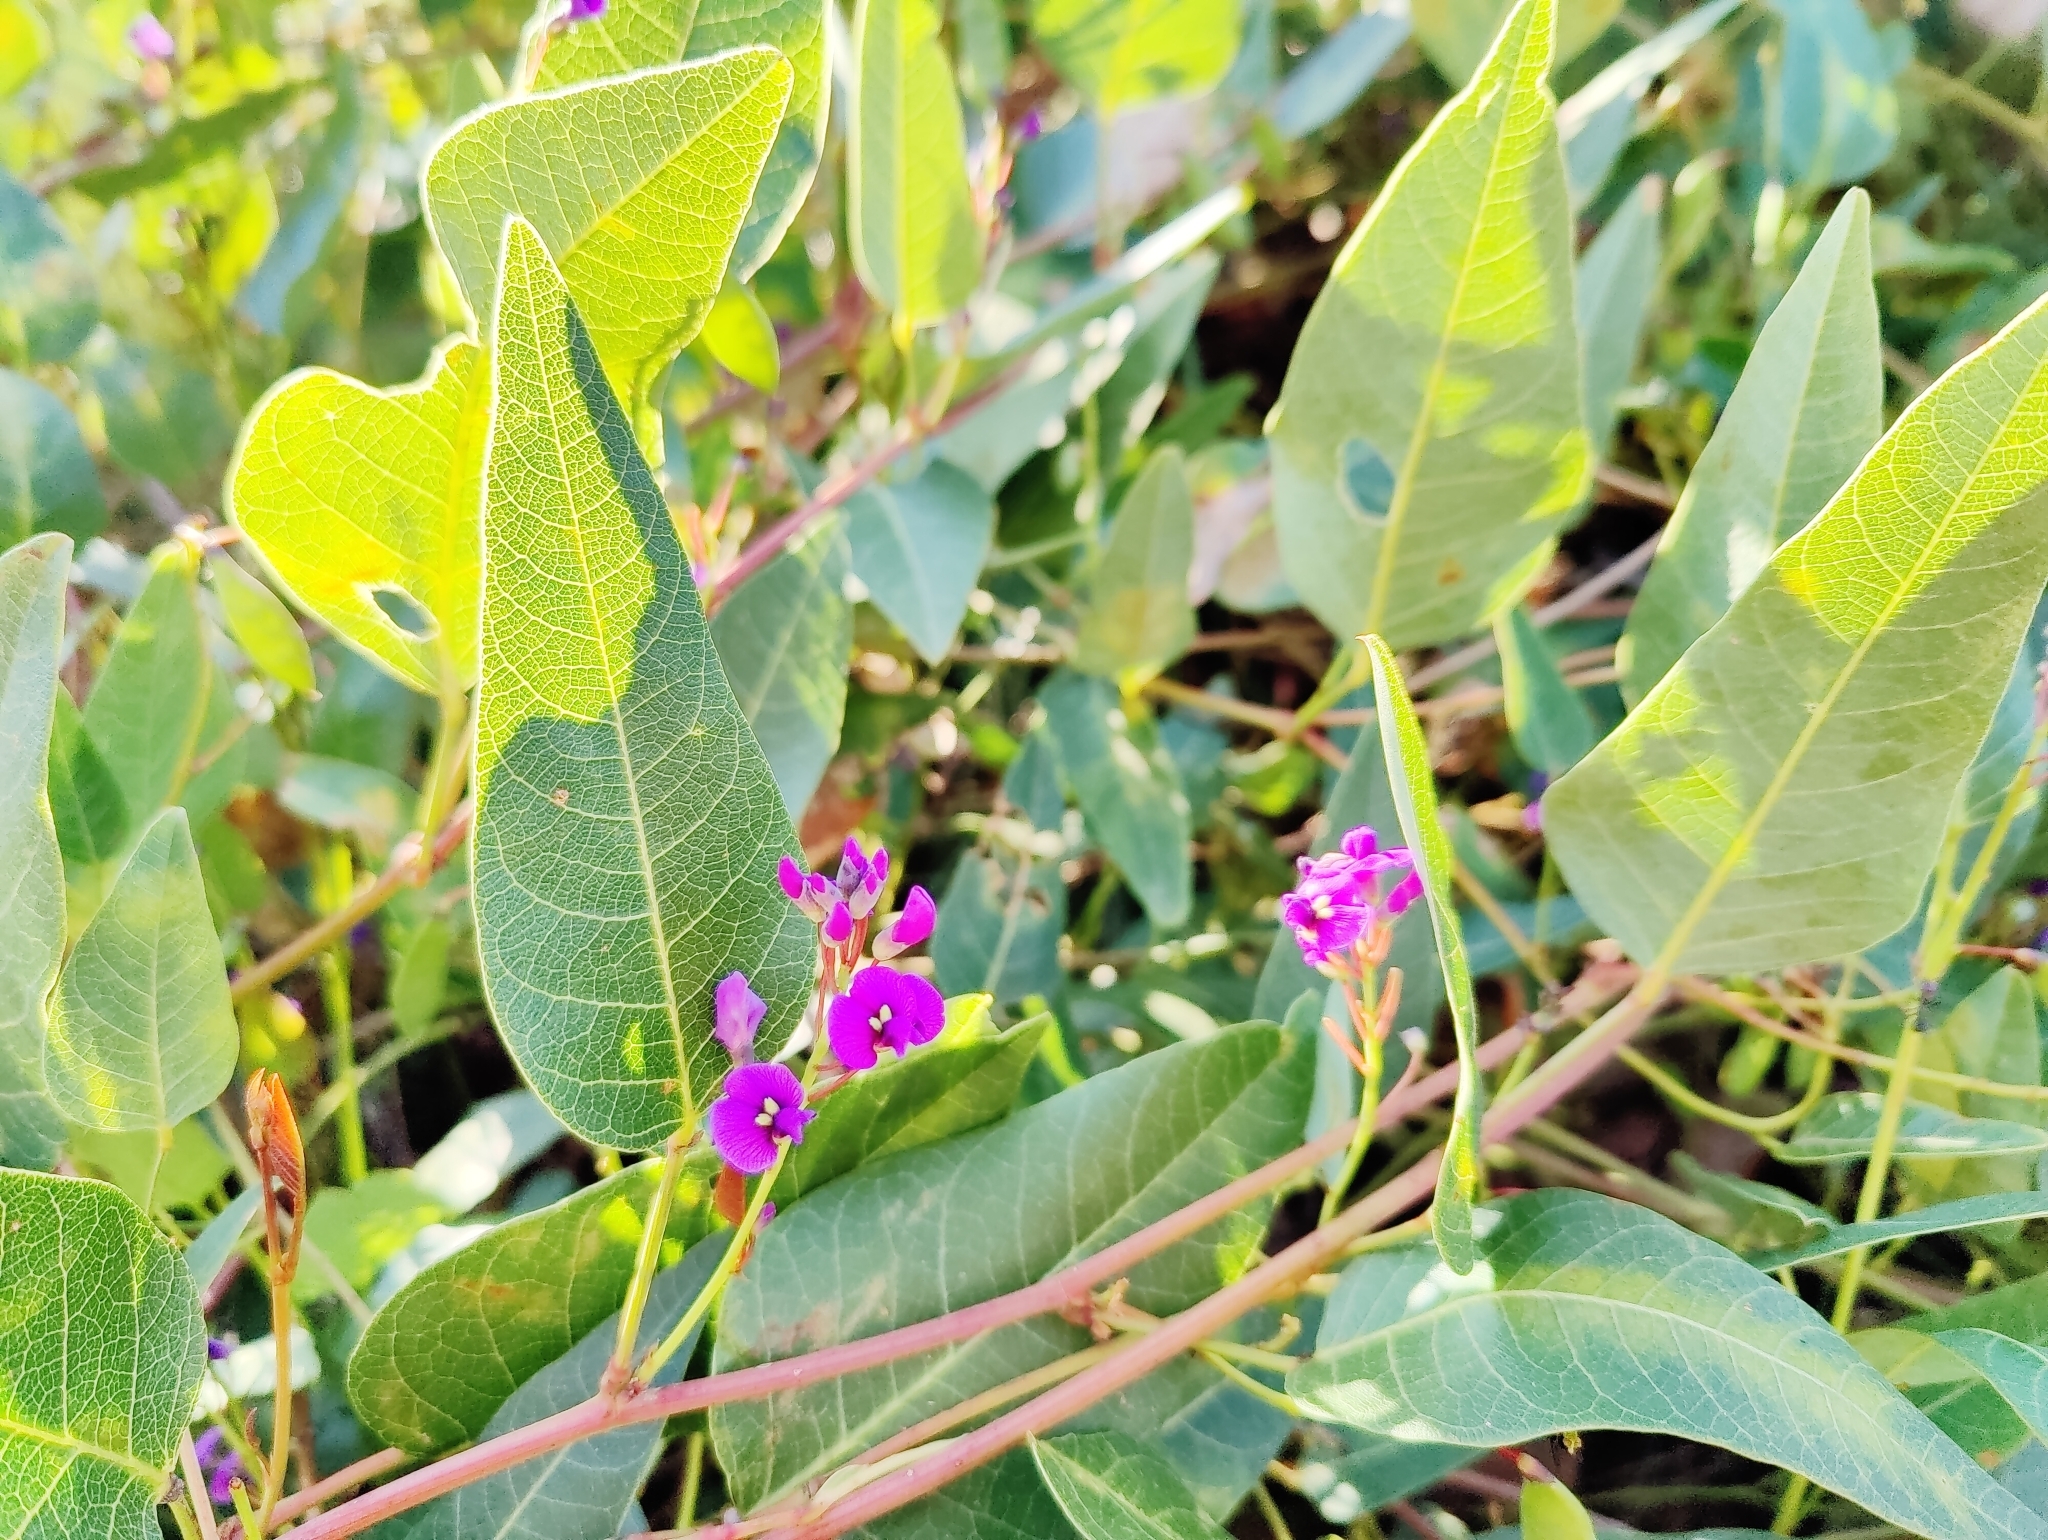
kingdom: Plantae
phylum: Tracheophyta
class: Magnoliopsida
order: Fabales
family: Fabaceae
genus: Hardenbergia
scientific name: Hardenbergia violacea
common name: Coral-pea
